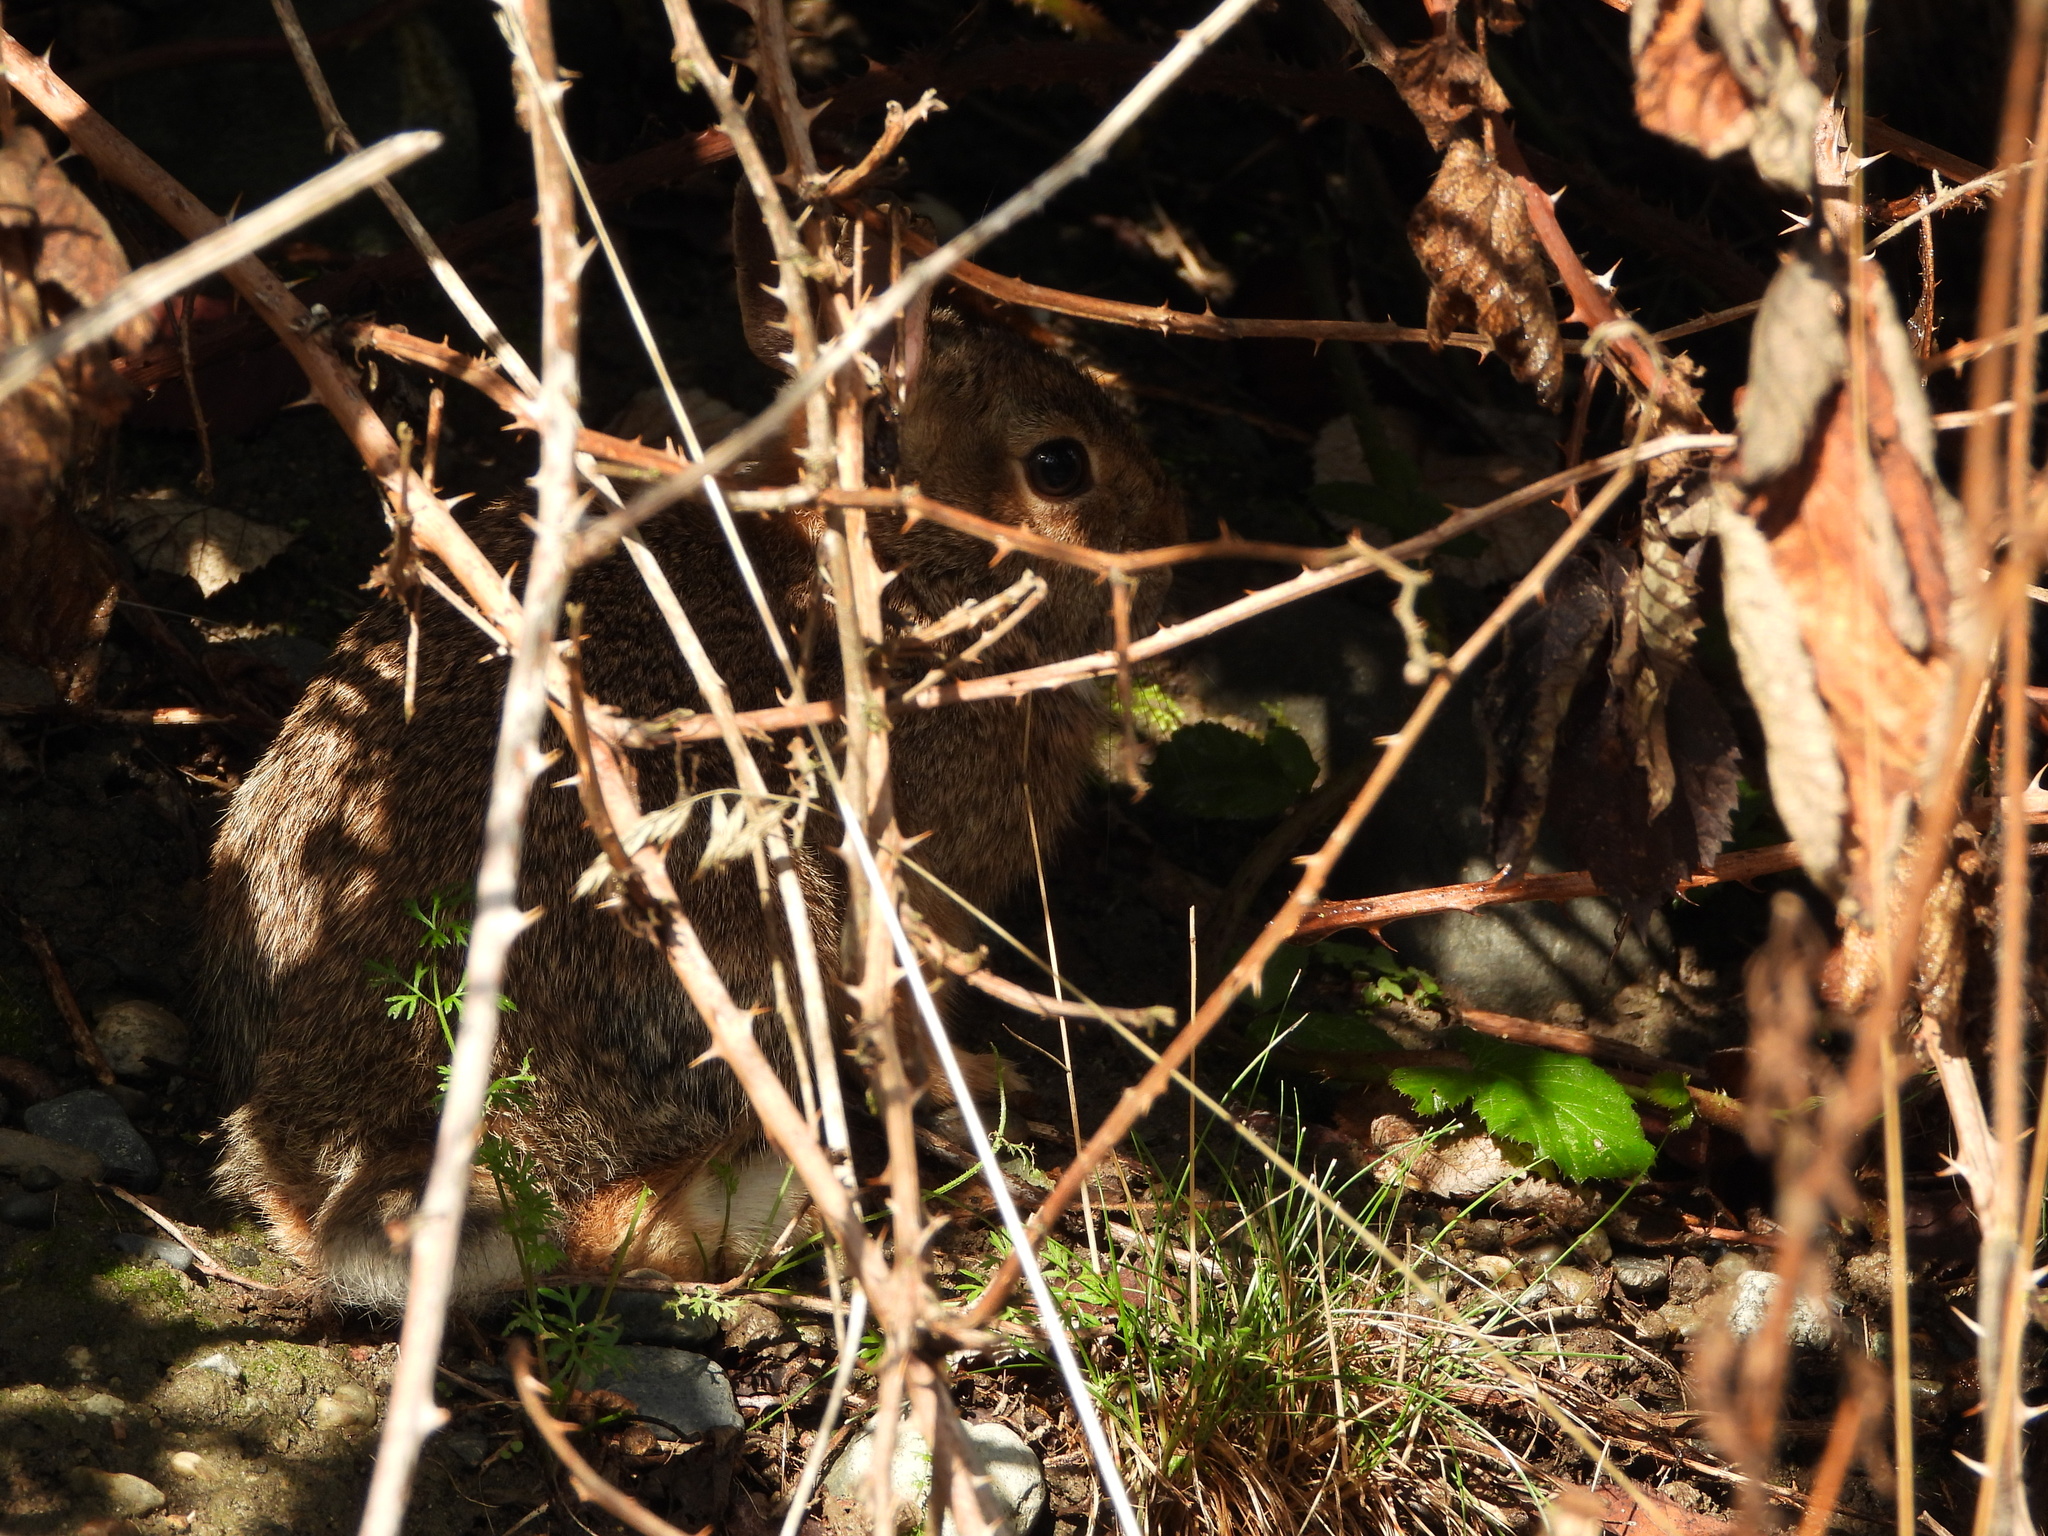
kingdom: Animalia
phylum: Chordata
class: Mammalia
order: Lagomorpha
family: Leporidae
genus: Sylvilagus
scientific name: Sylvilagus floridanus
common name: Eastern cottontail
